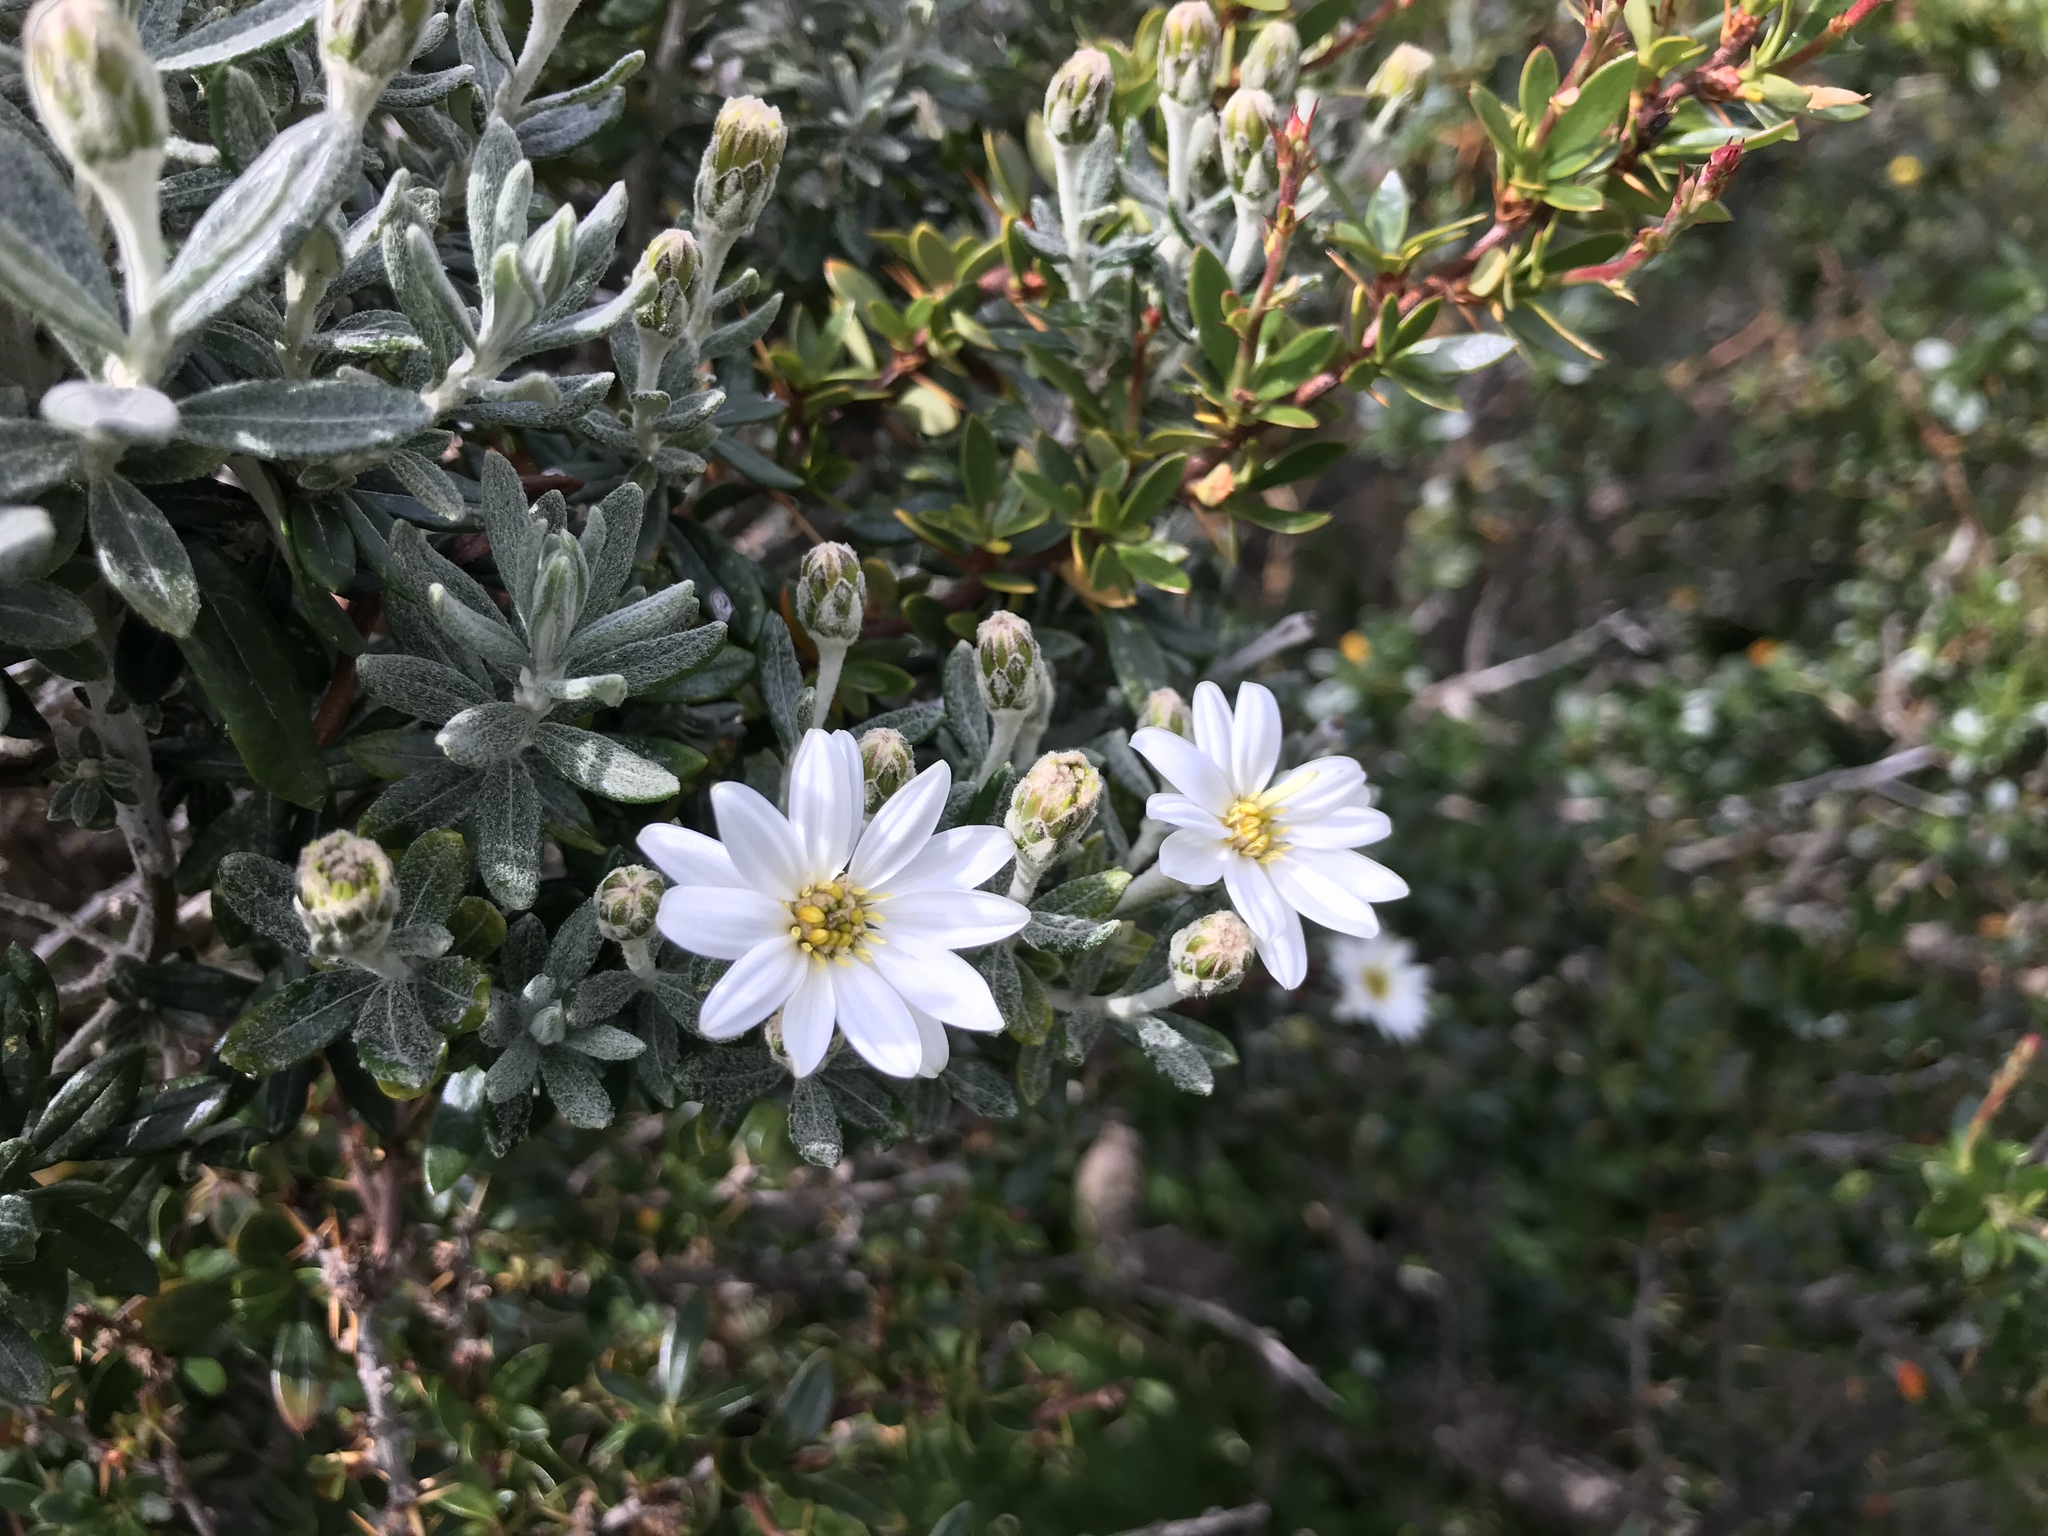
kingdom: Plantae
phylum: Tracheophyta
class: Magnoliopsida
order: Asterales
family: Asteraceae
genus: Chiliotrichum
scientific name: Chiliotrichum diffusum
